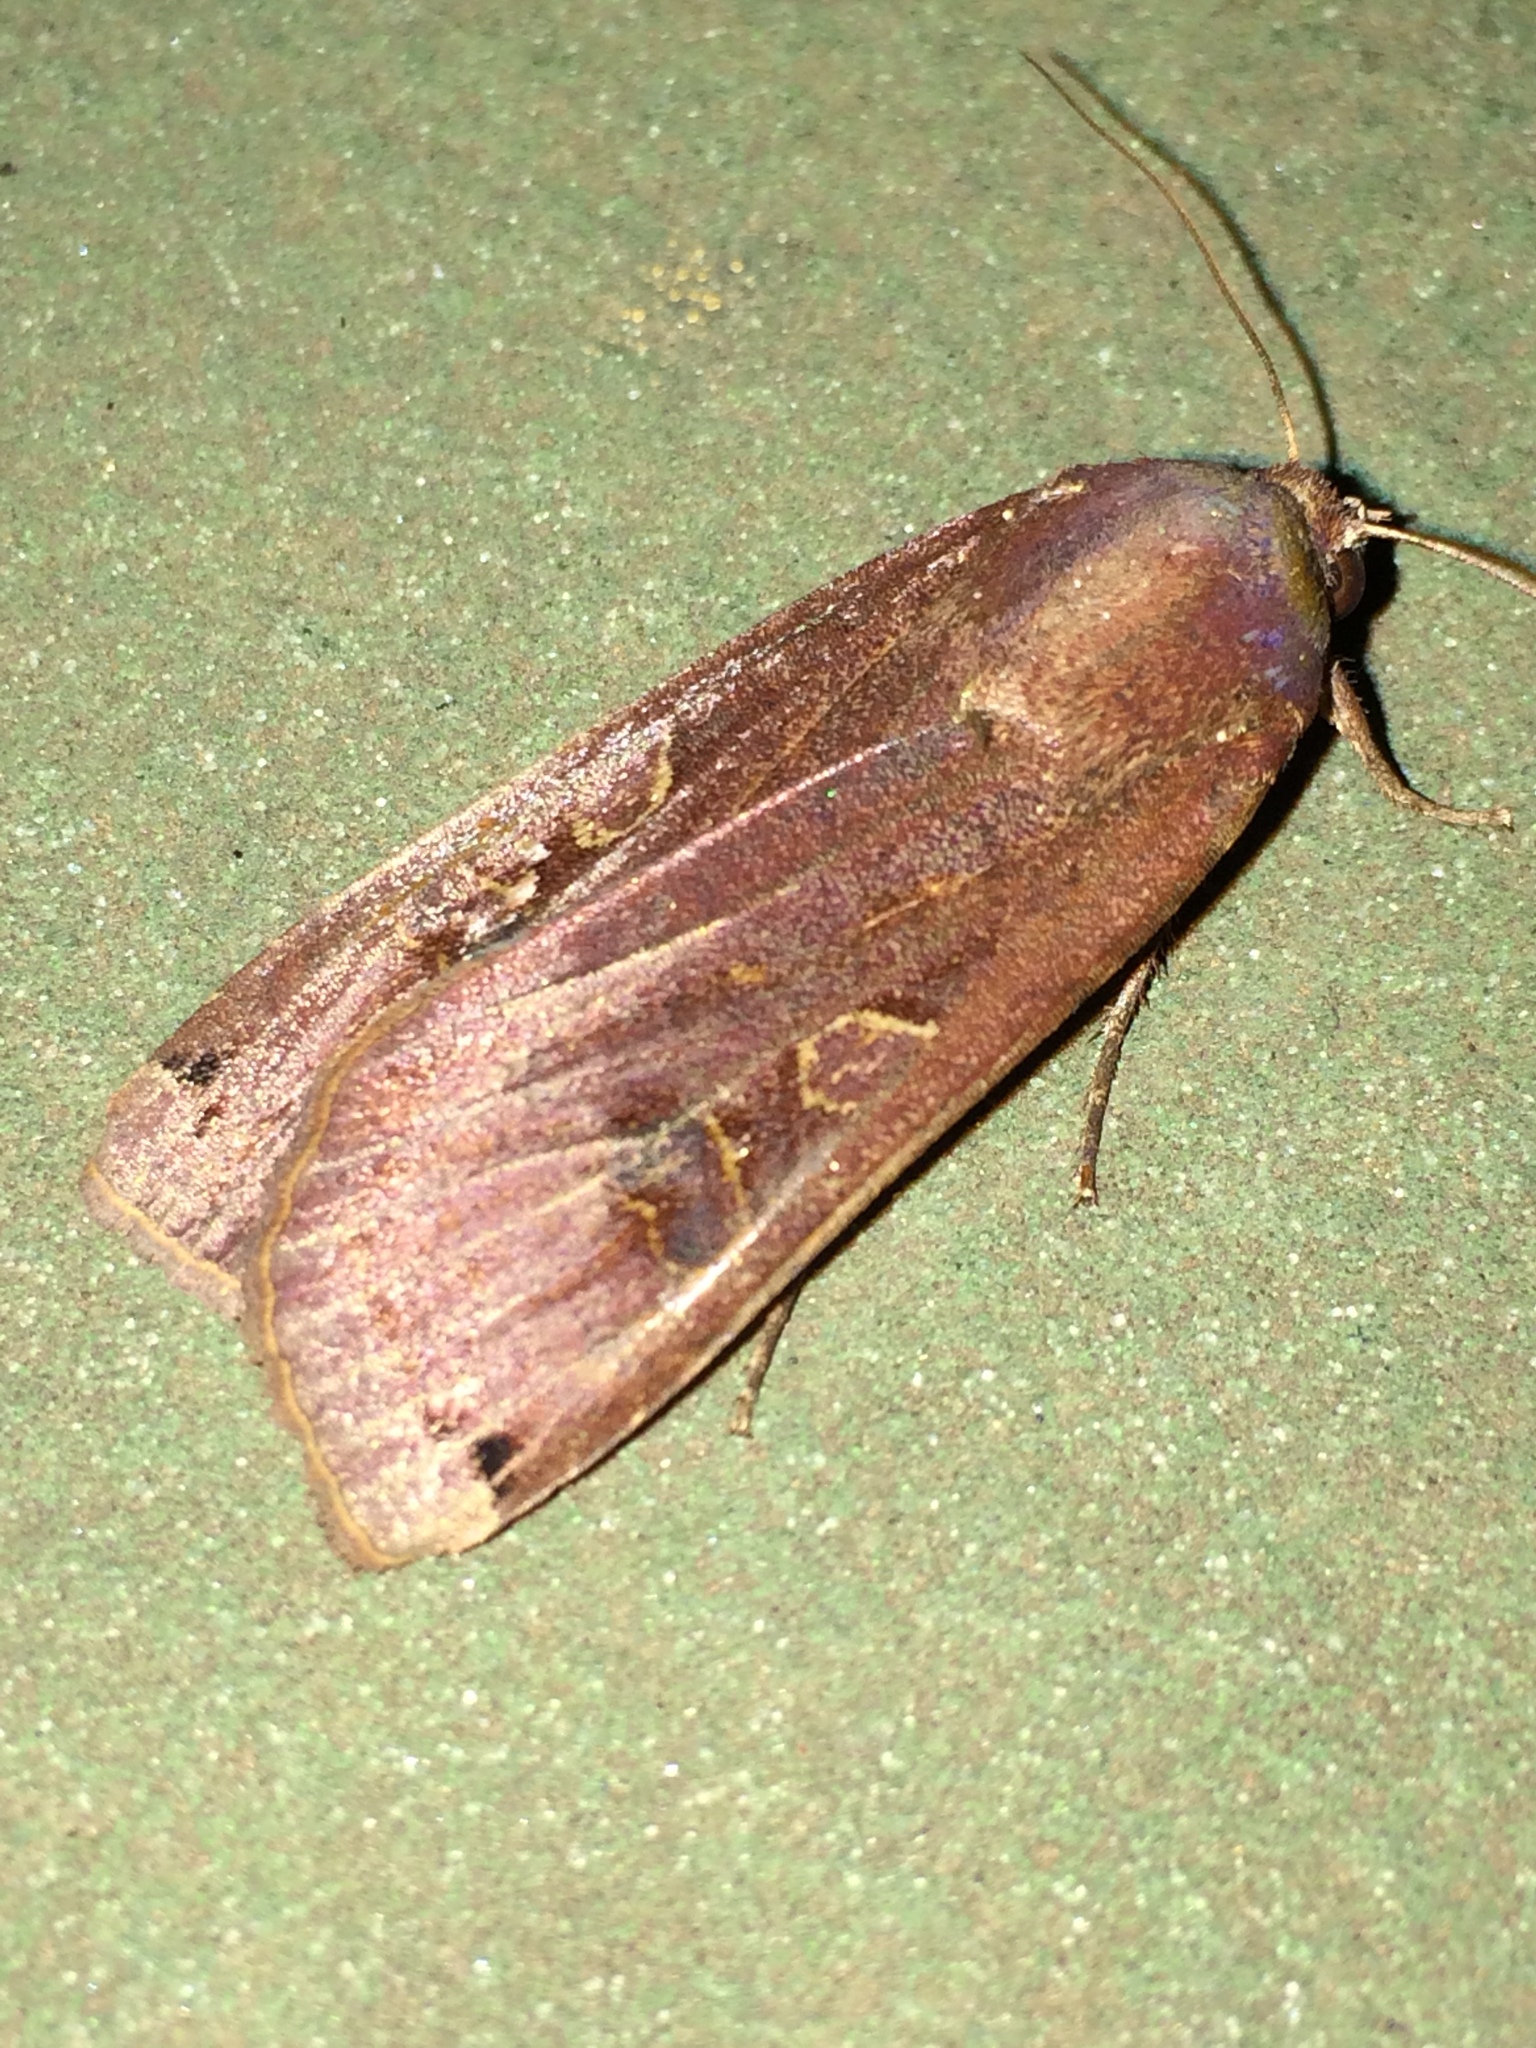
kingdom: Animalia
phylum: Arthropoda
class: Insecta
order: Lepidoptera
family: Noctuidae
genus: Noctua
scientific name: Noctua pronuba
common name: Large yellow underwing
